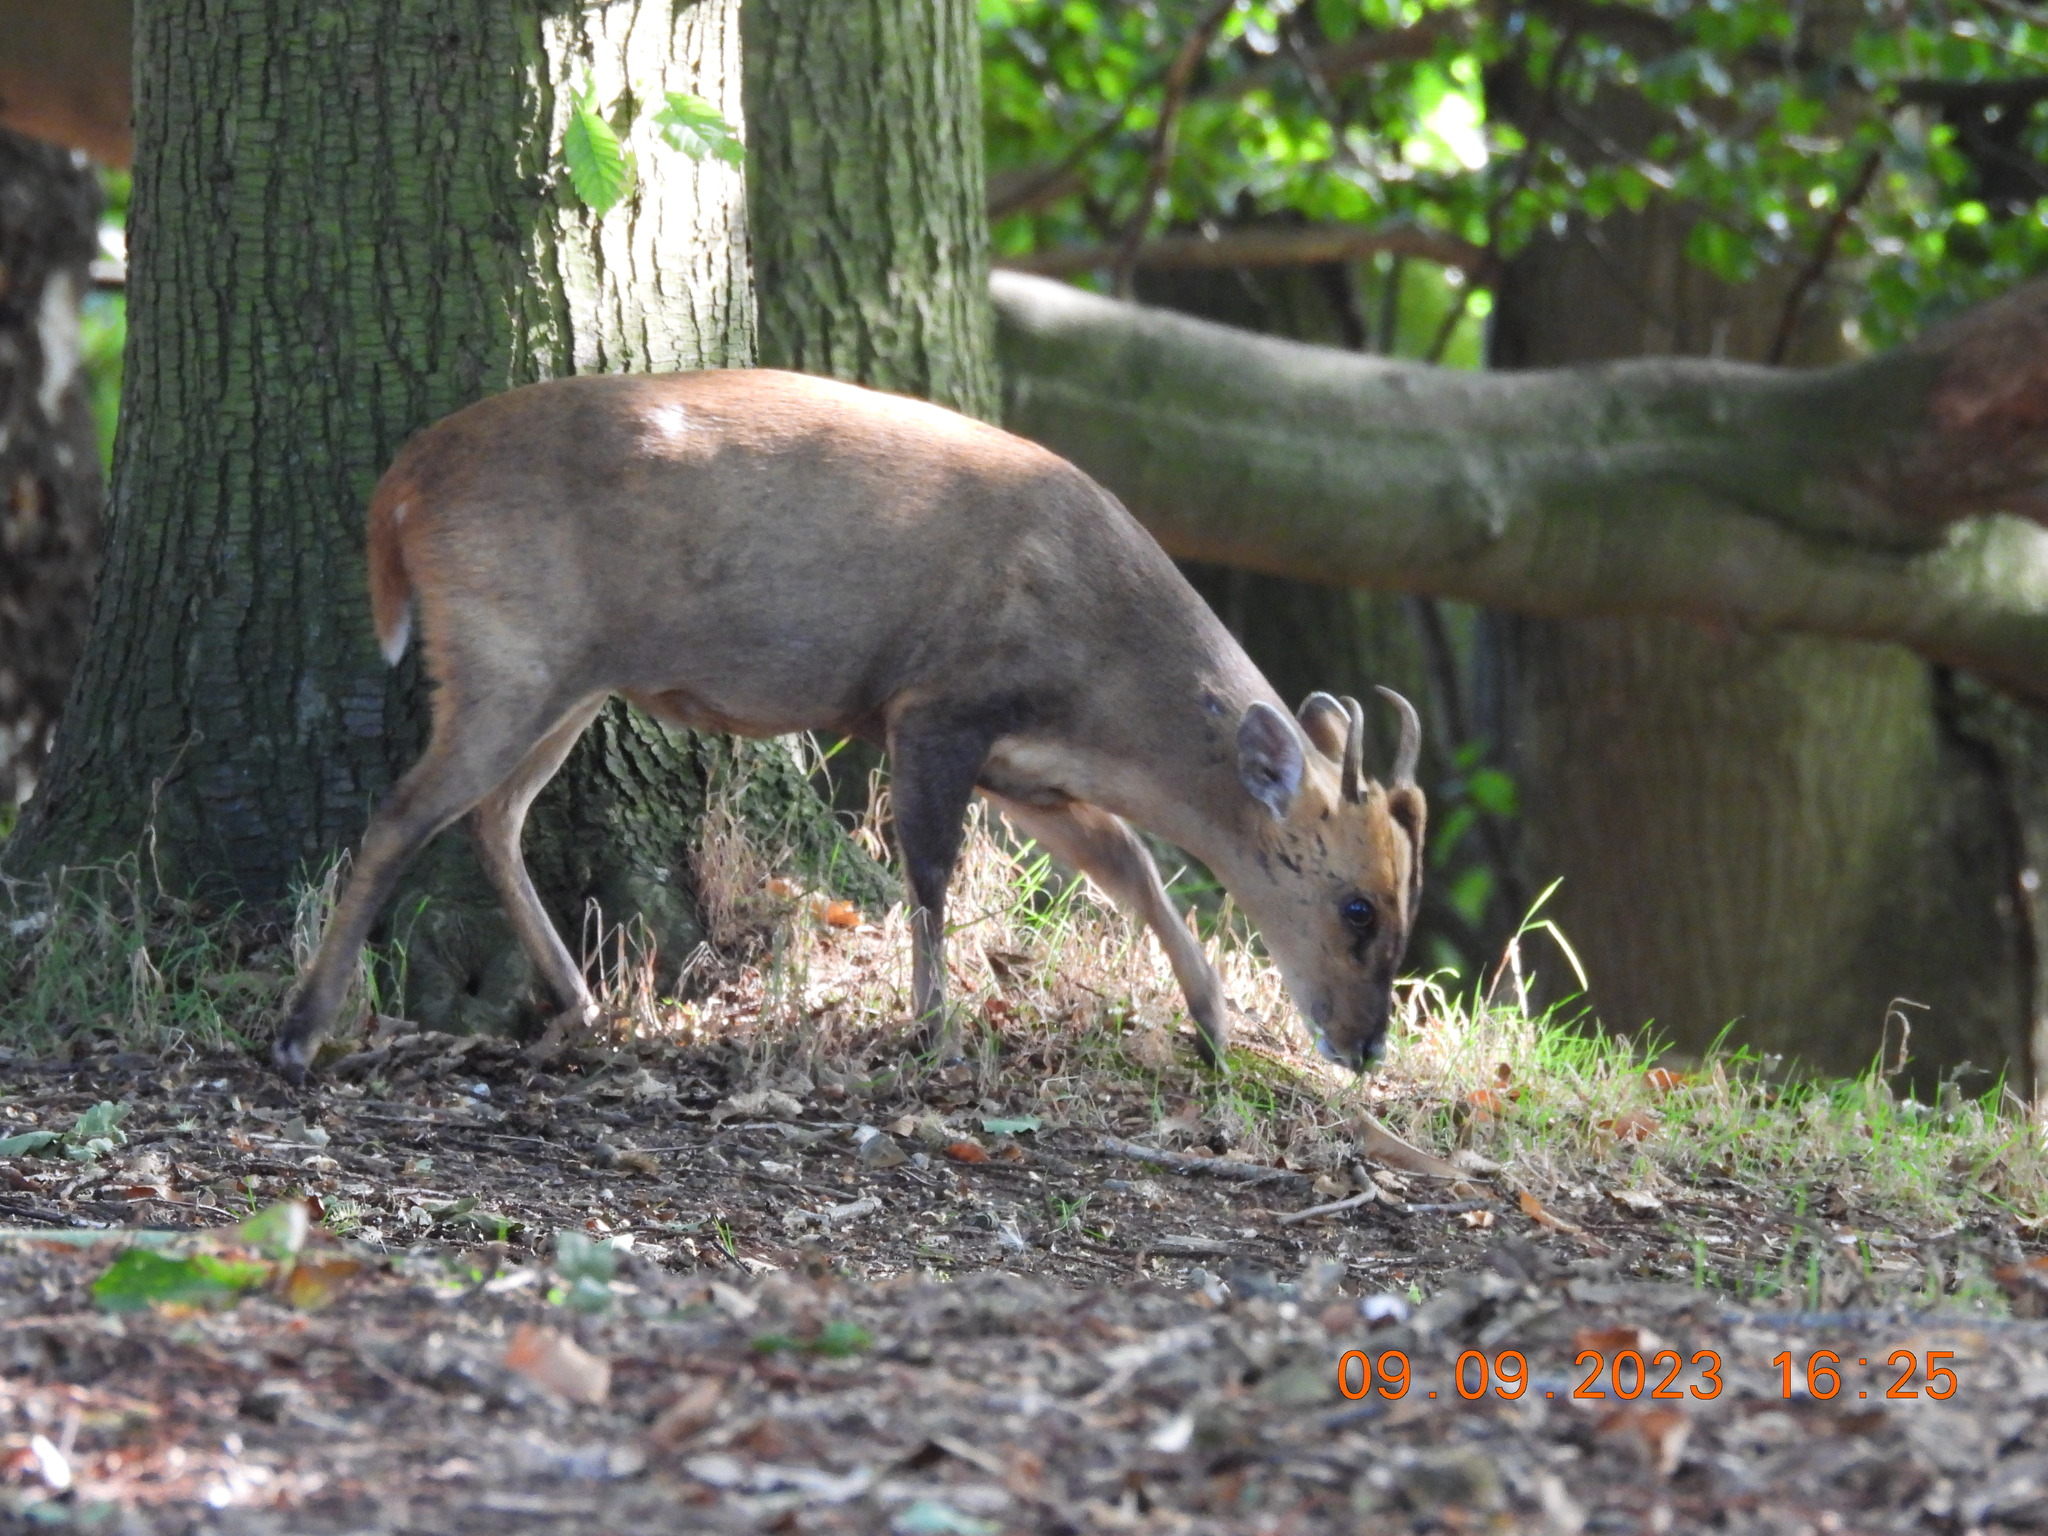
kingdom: Animalia
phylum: Chordata
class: Mammalia
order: Artiodactyla
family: Cervidae
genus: Muntiacus
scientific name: Muntiacus reevesi
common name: Reeves' muntjac
